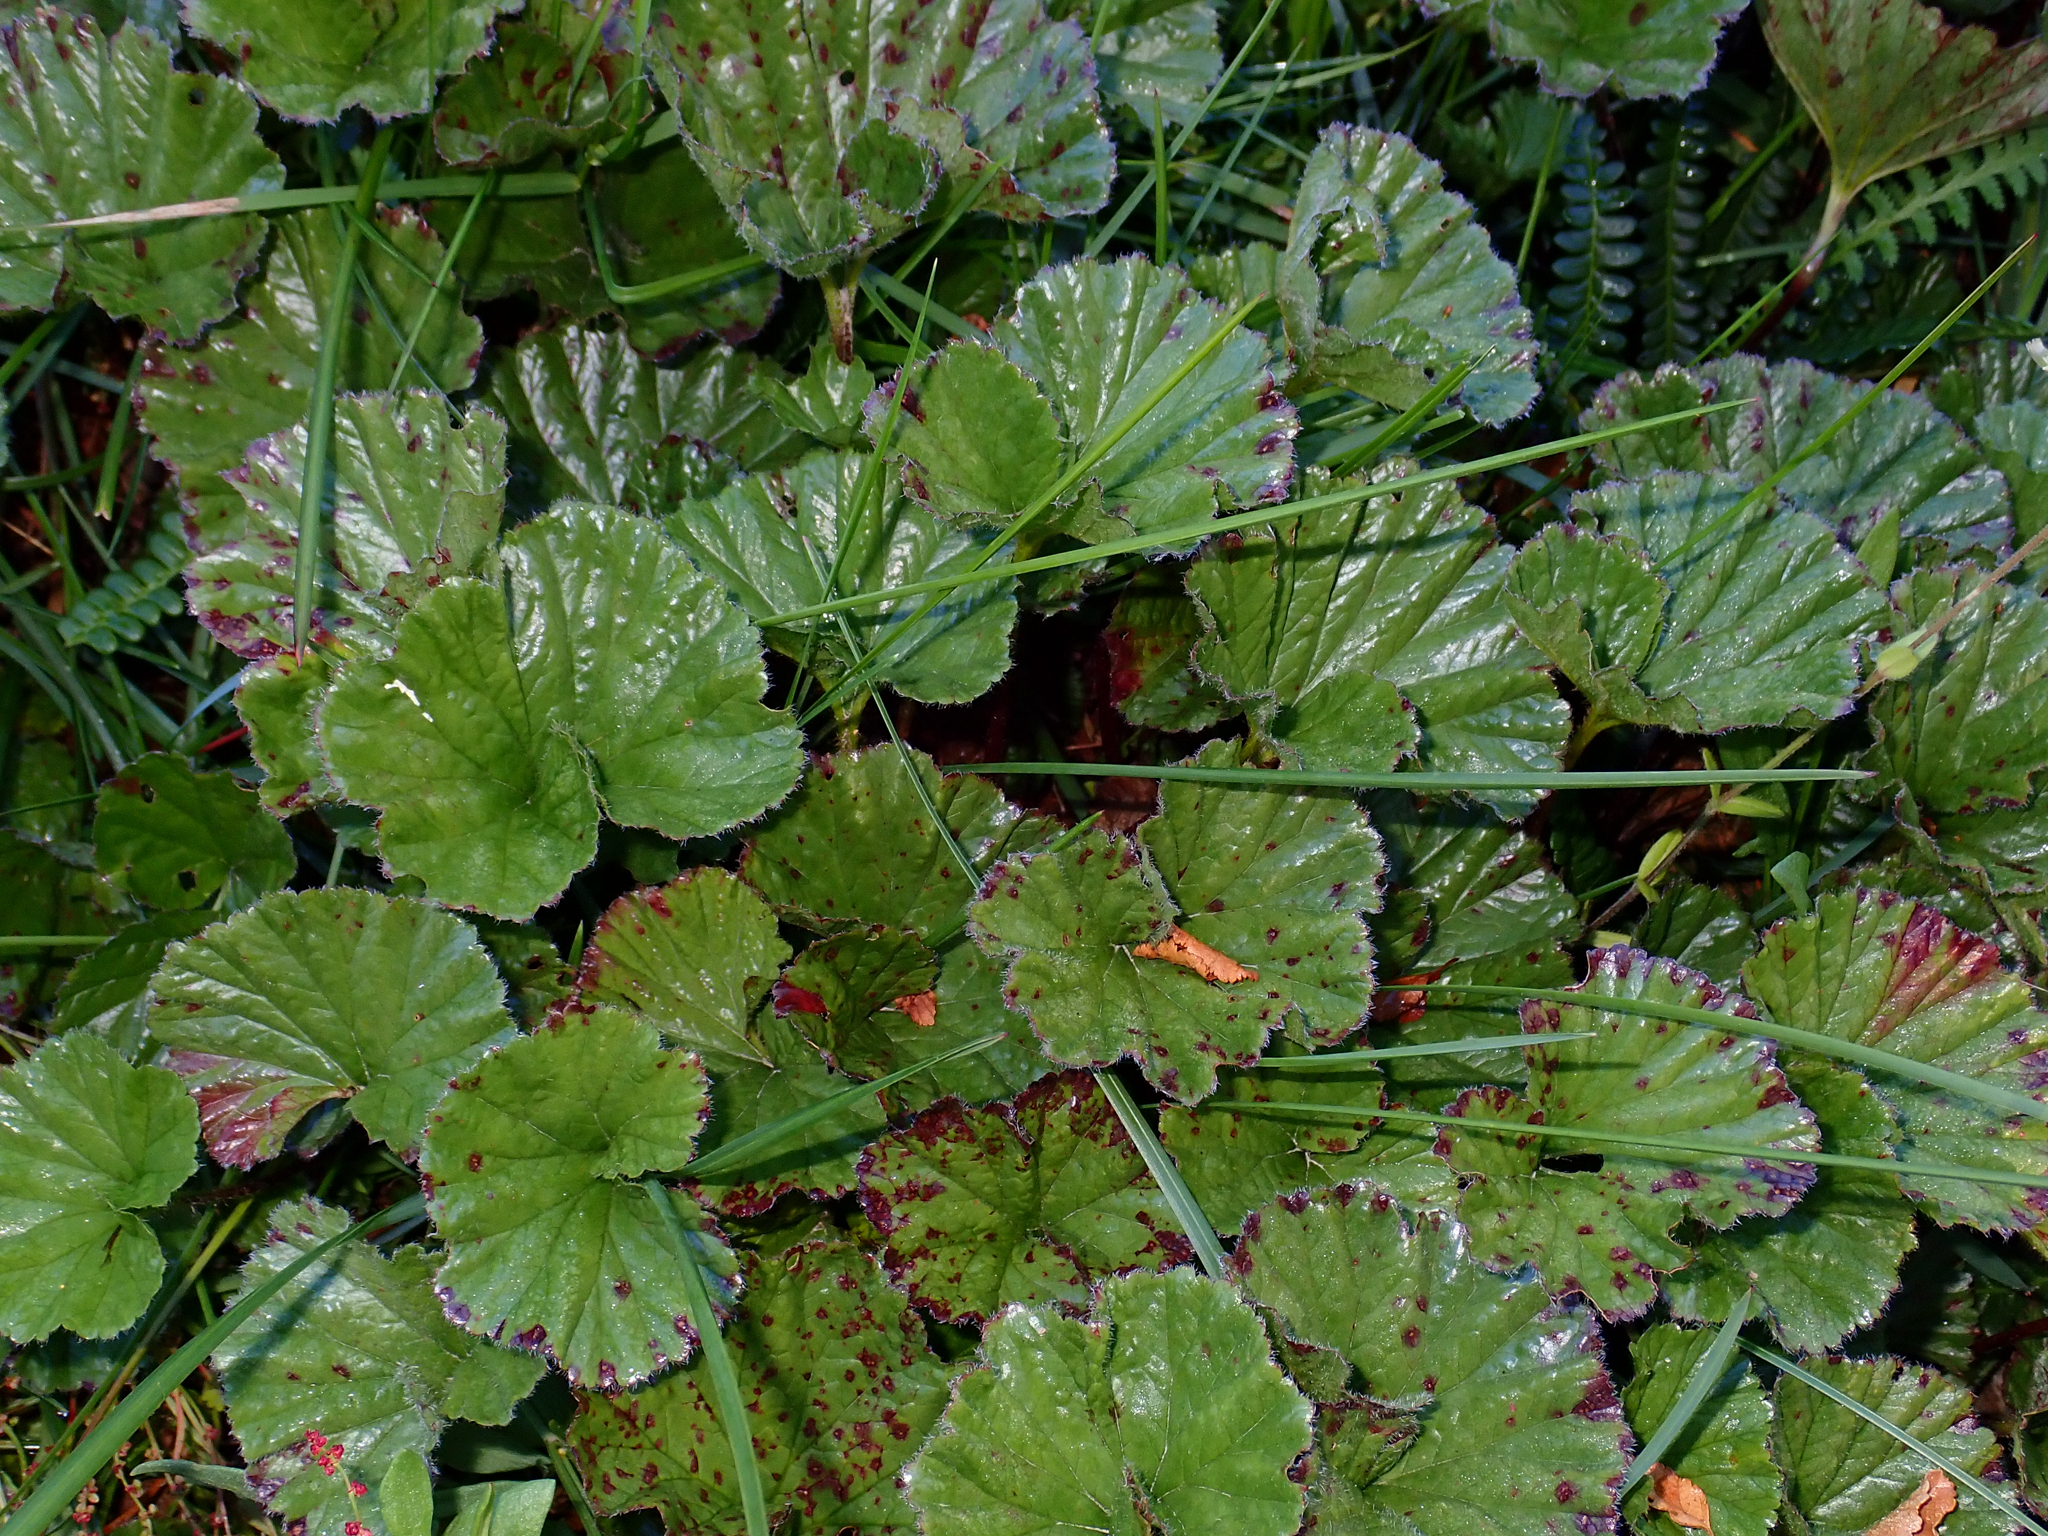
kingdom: Plantae
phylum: Tracheophyta
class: Magnoliopsida
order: Gunnerales
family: Gunneraceae
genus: Gunnera
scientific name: Gunnera magellanica
